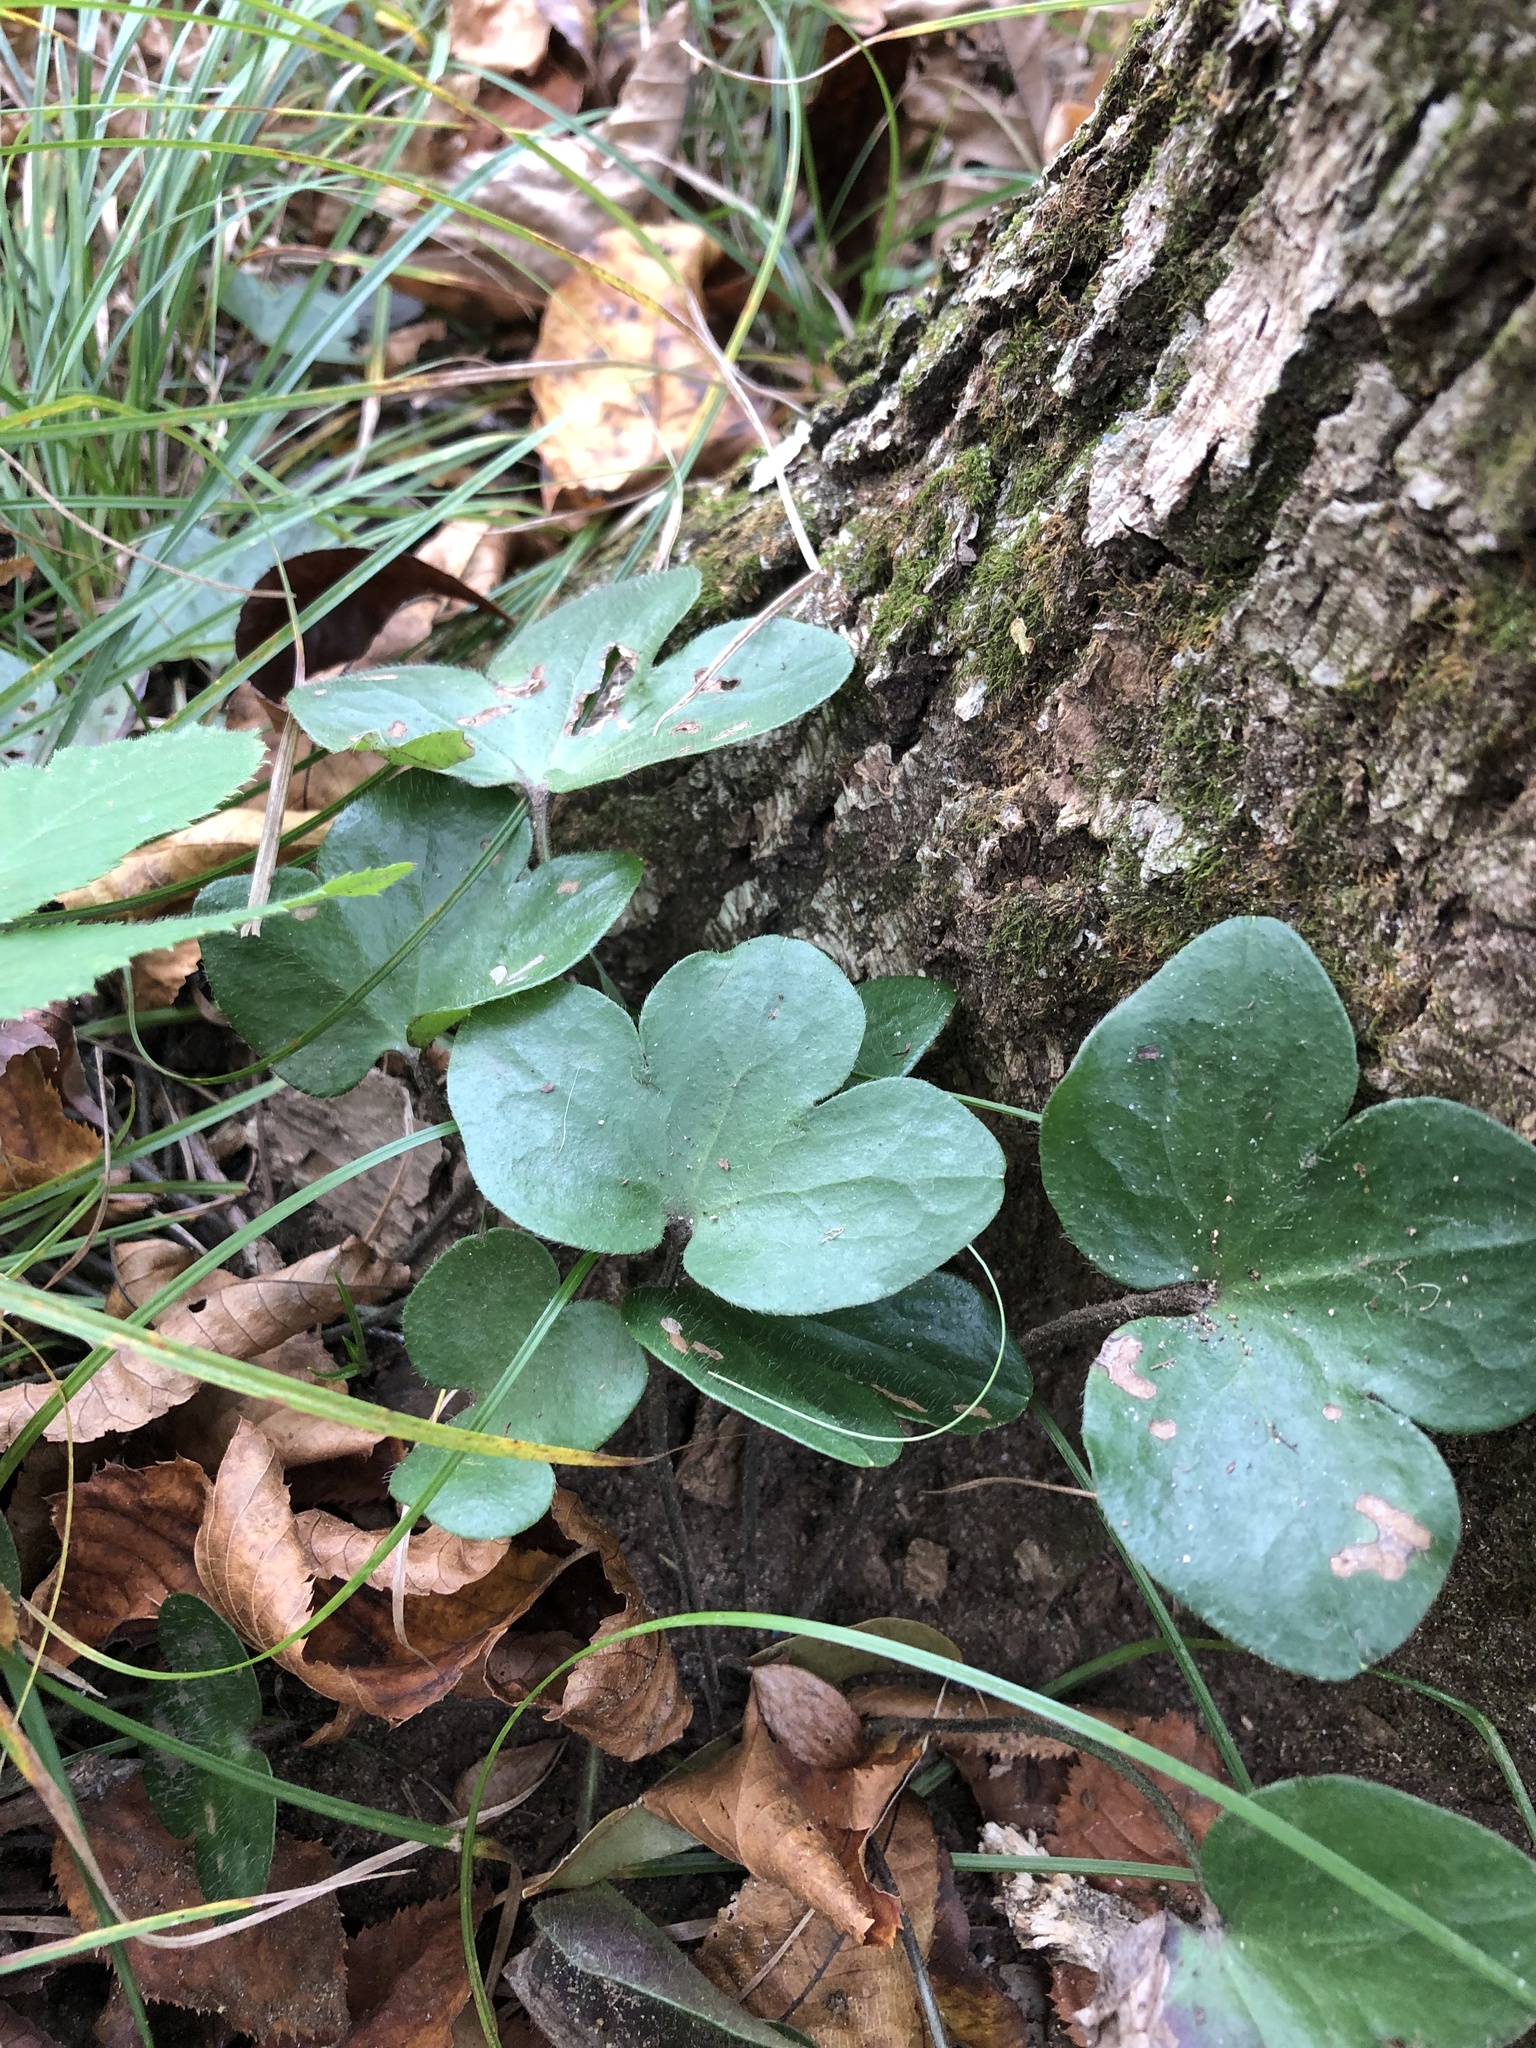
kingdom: Plantae
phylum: Tracheophyta
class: Magnoliopsida
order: Ranunculales
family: Ranunculaceae
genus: Hepatica
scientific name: Hepatica americana
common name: American hepatica
